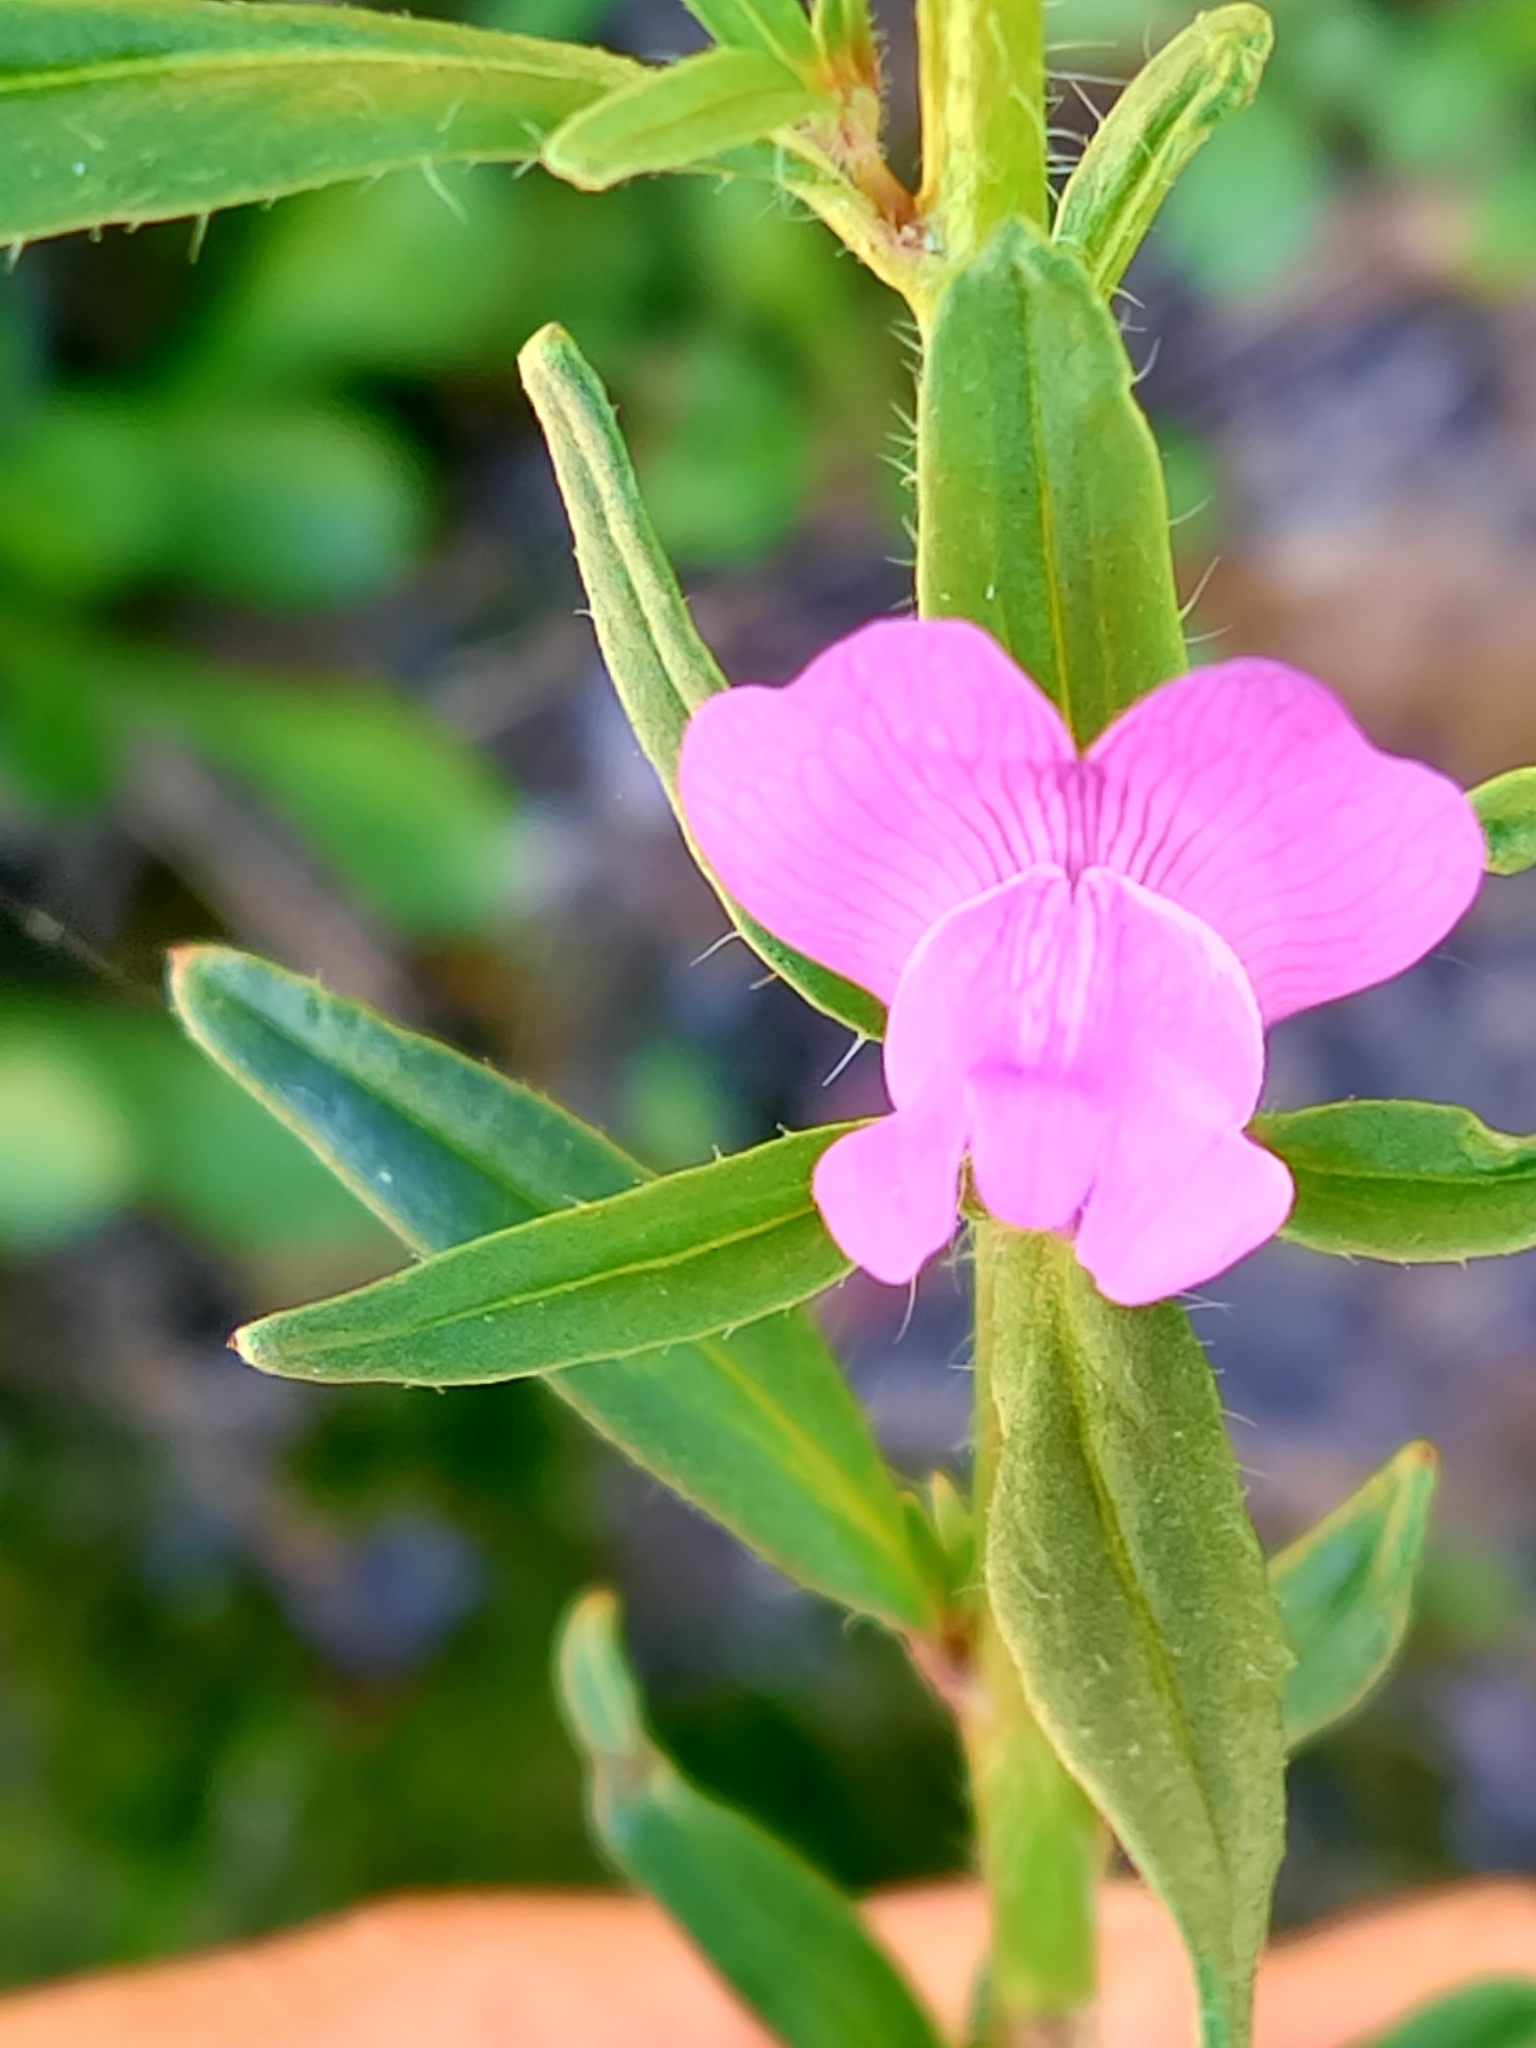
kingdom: Plantae
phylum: Tracheophyta
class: Magnoliopsida
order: Lamiales
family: Plantaginaceae
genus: Misopates
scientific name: Misopates orontium
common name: Weasel's-snout
